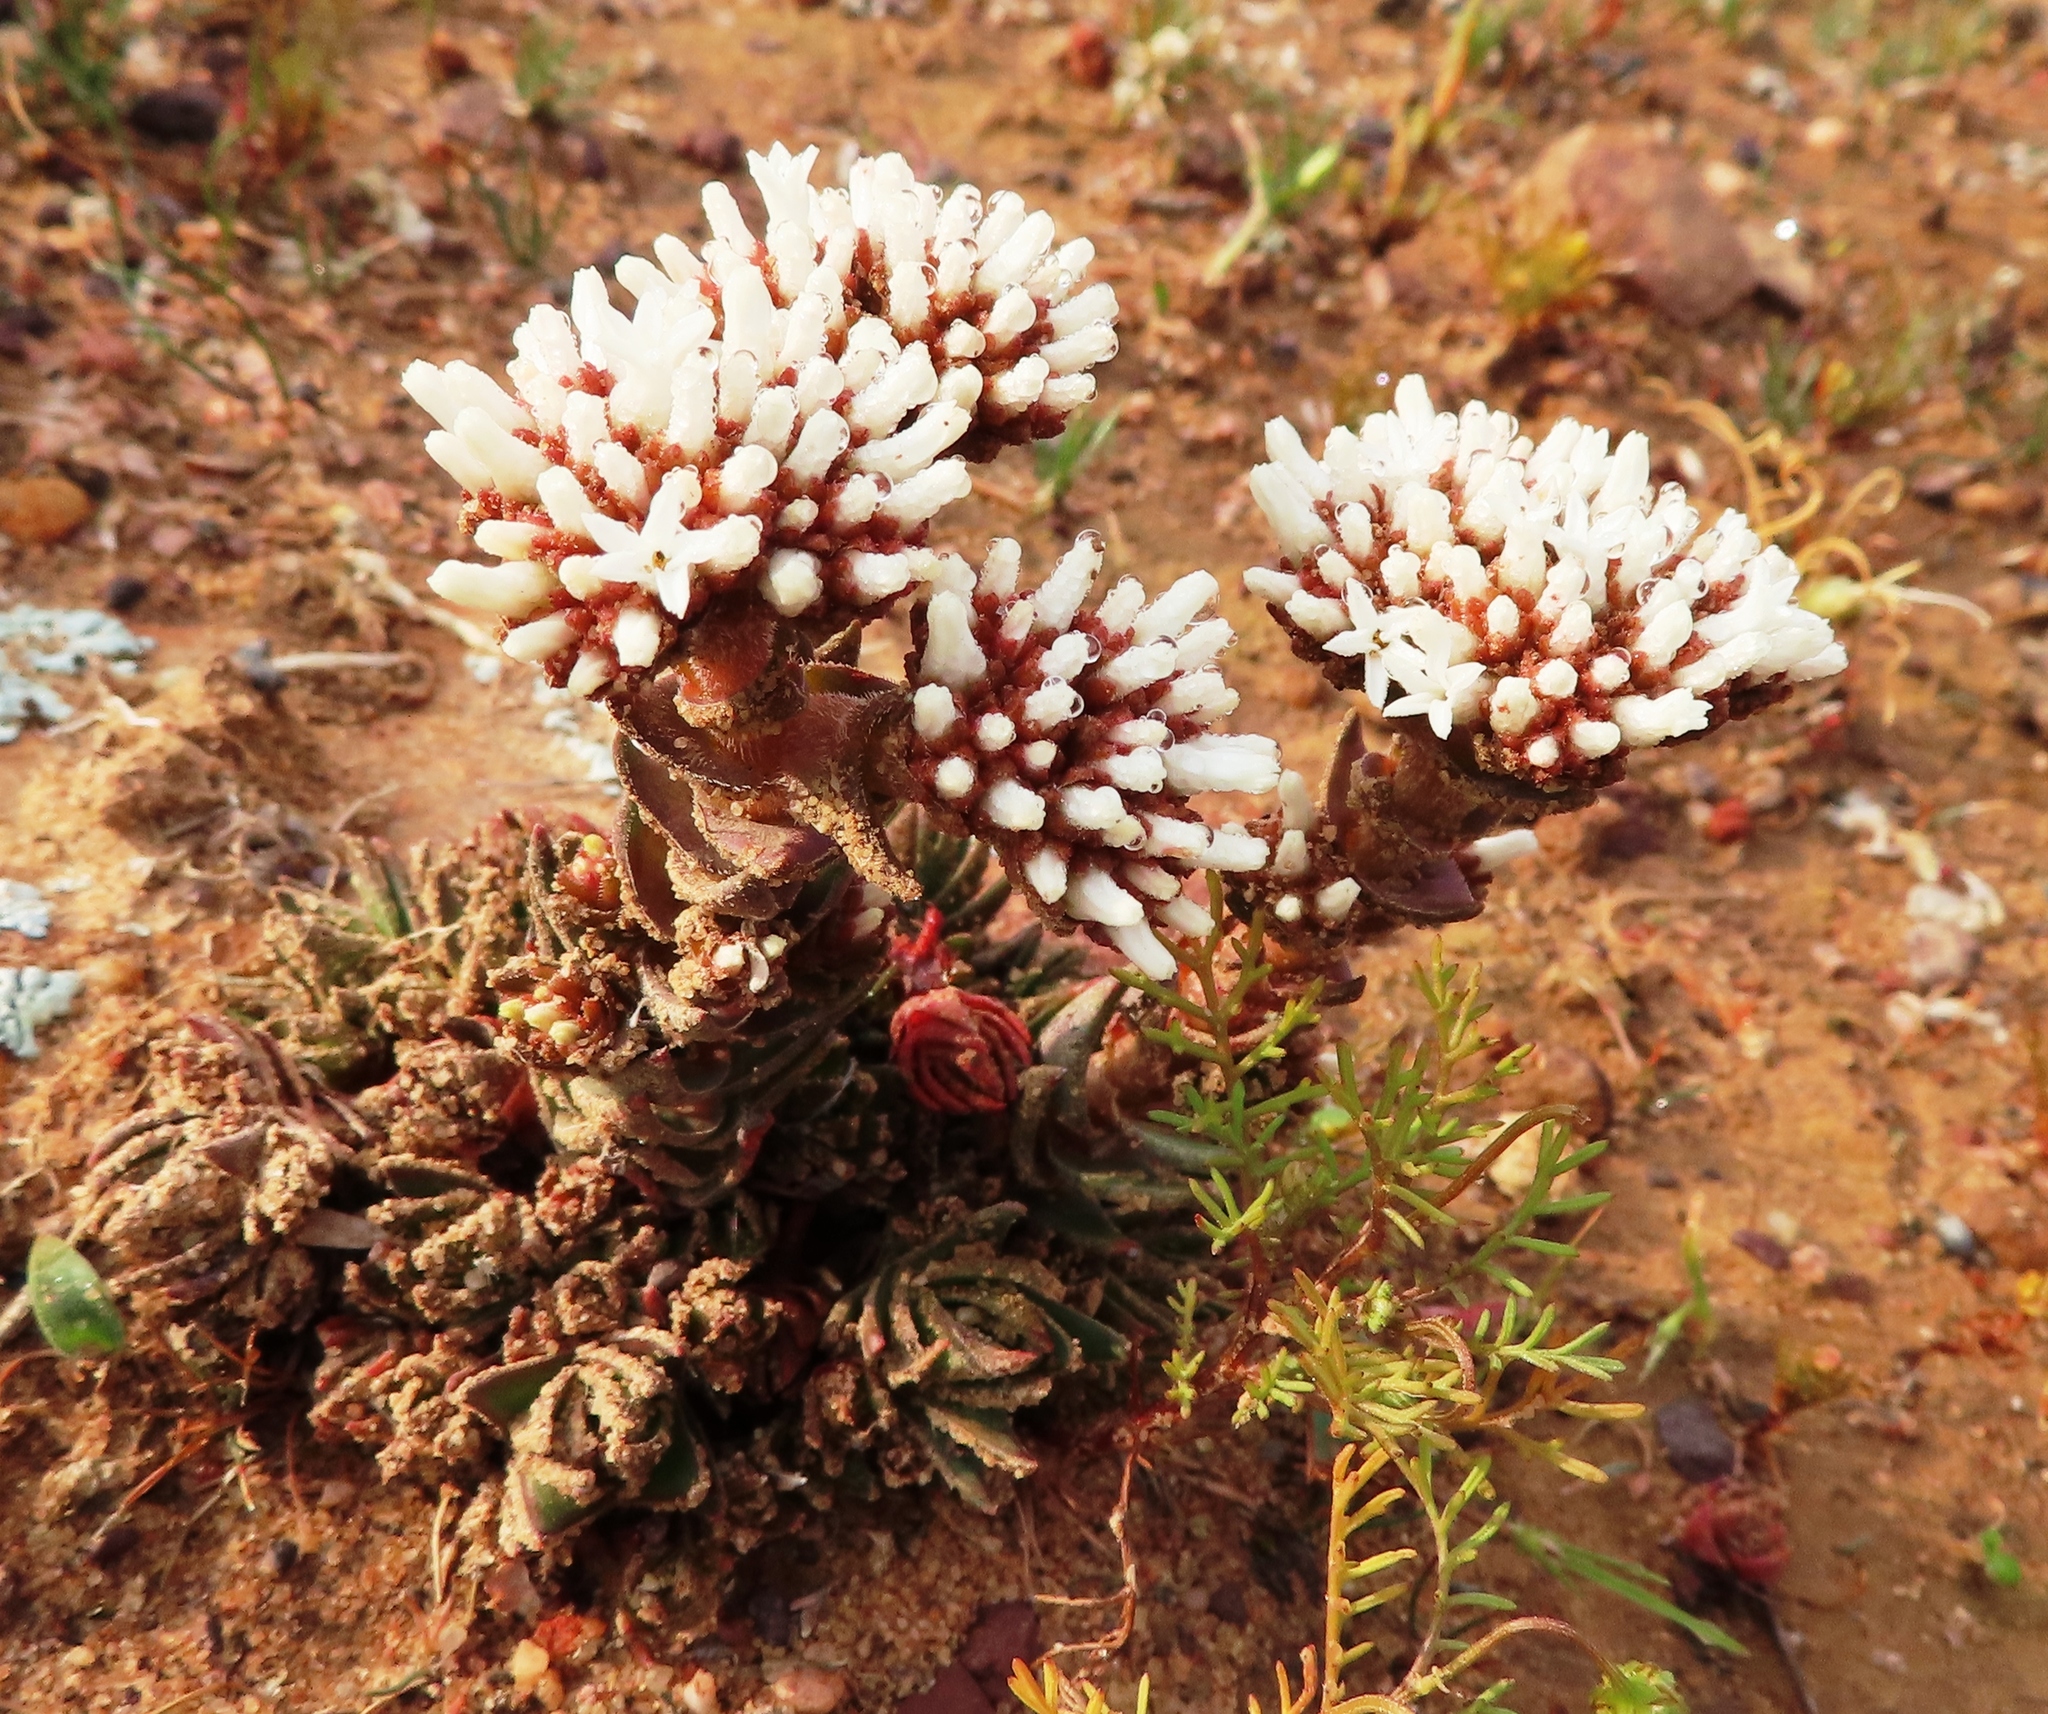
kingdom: Plantae
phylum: Tracheophyta
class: Magnoliopsida
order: Saxifragales
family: Crassulaceae
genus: Crassula
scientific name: Crassula alpestris
